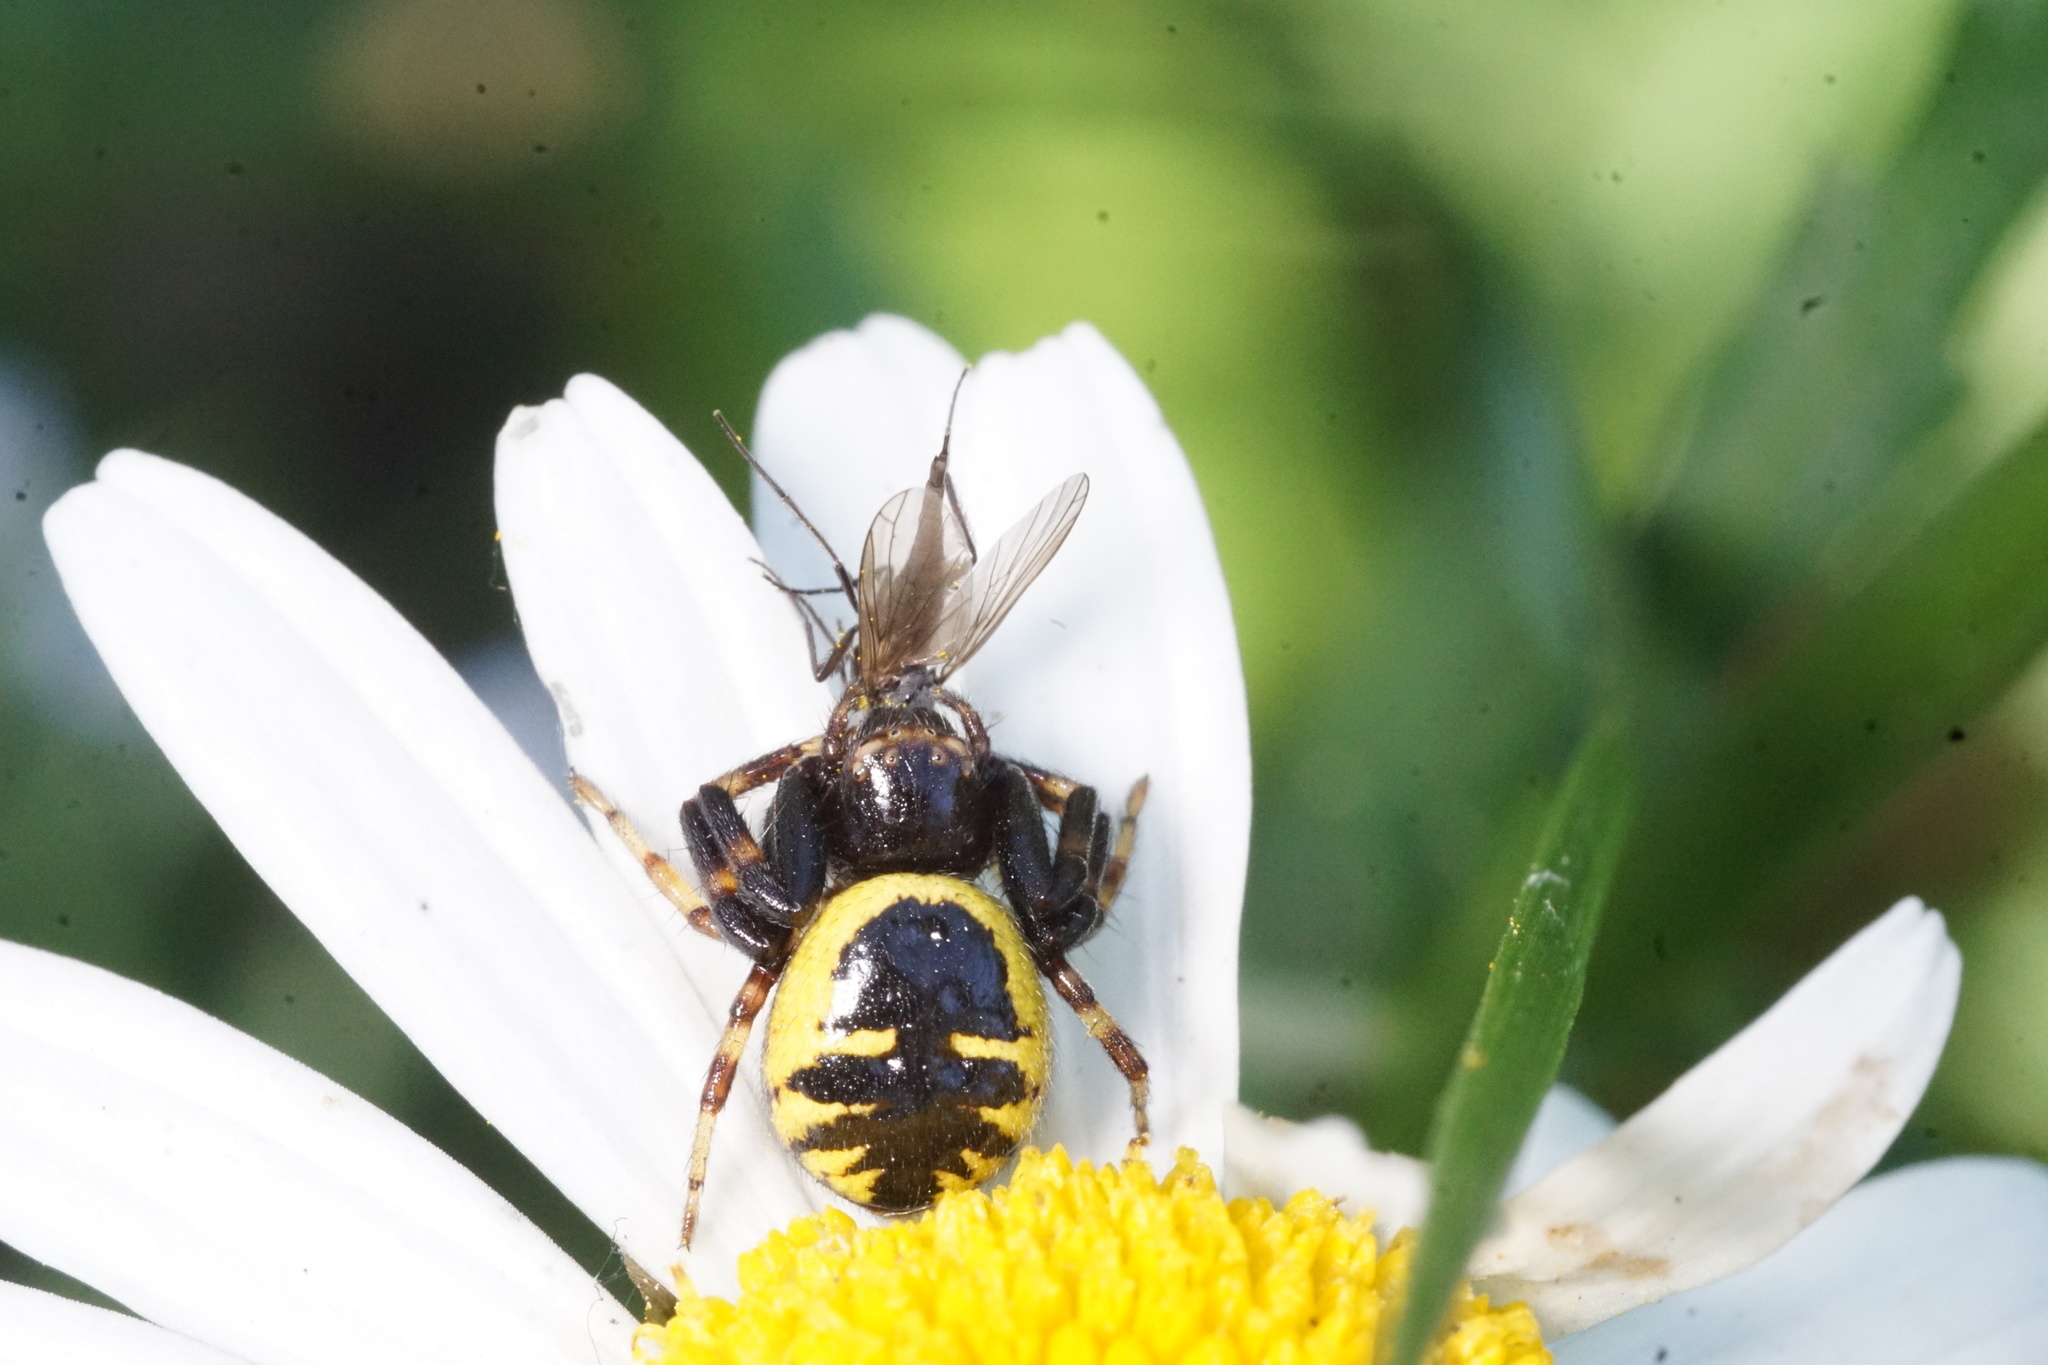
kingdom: Animalia
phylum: Arthropoda
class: Arachnida
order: Araneae
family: Thomisidae
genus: Synema
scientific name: Synema globosum
